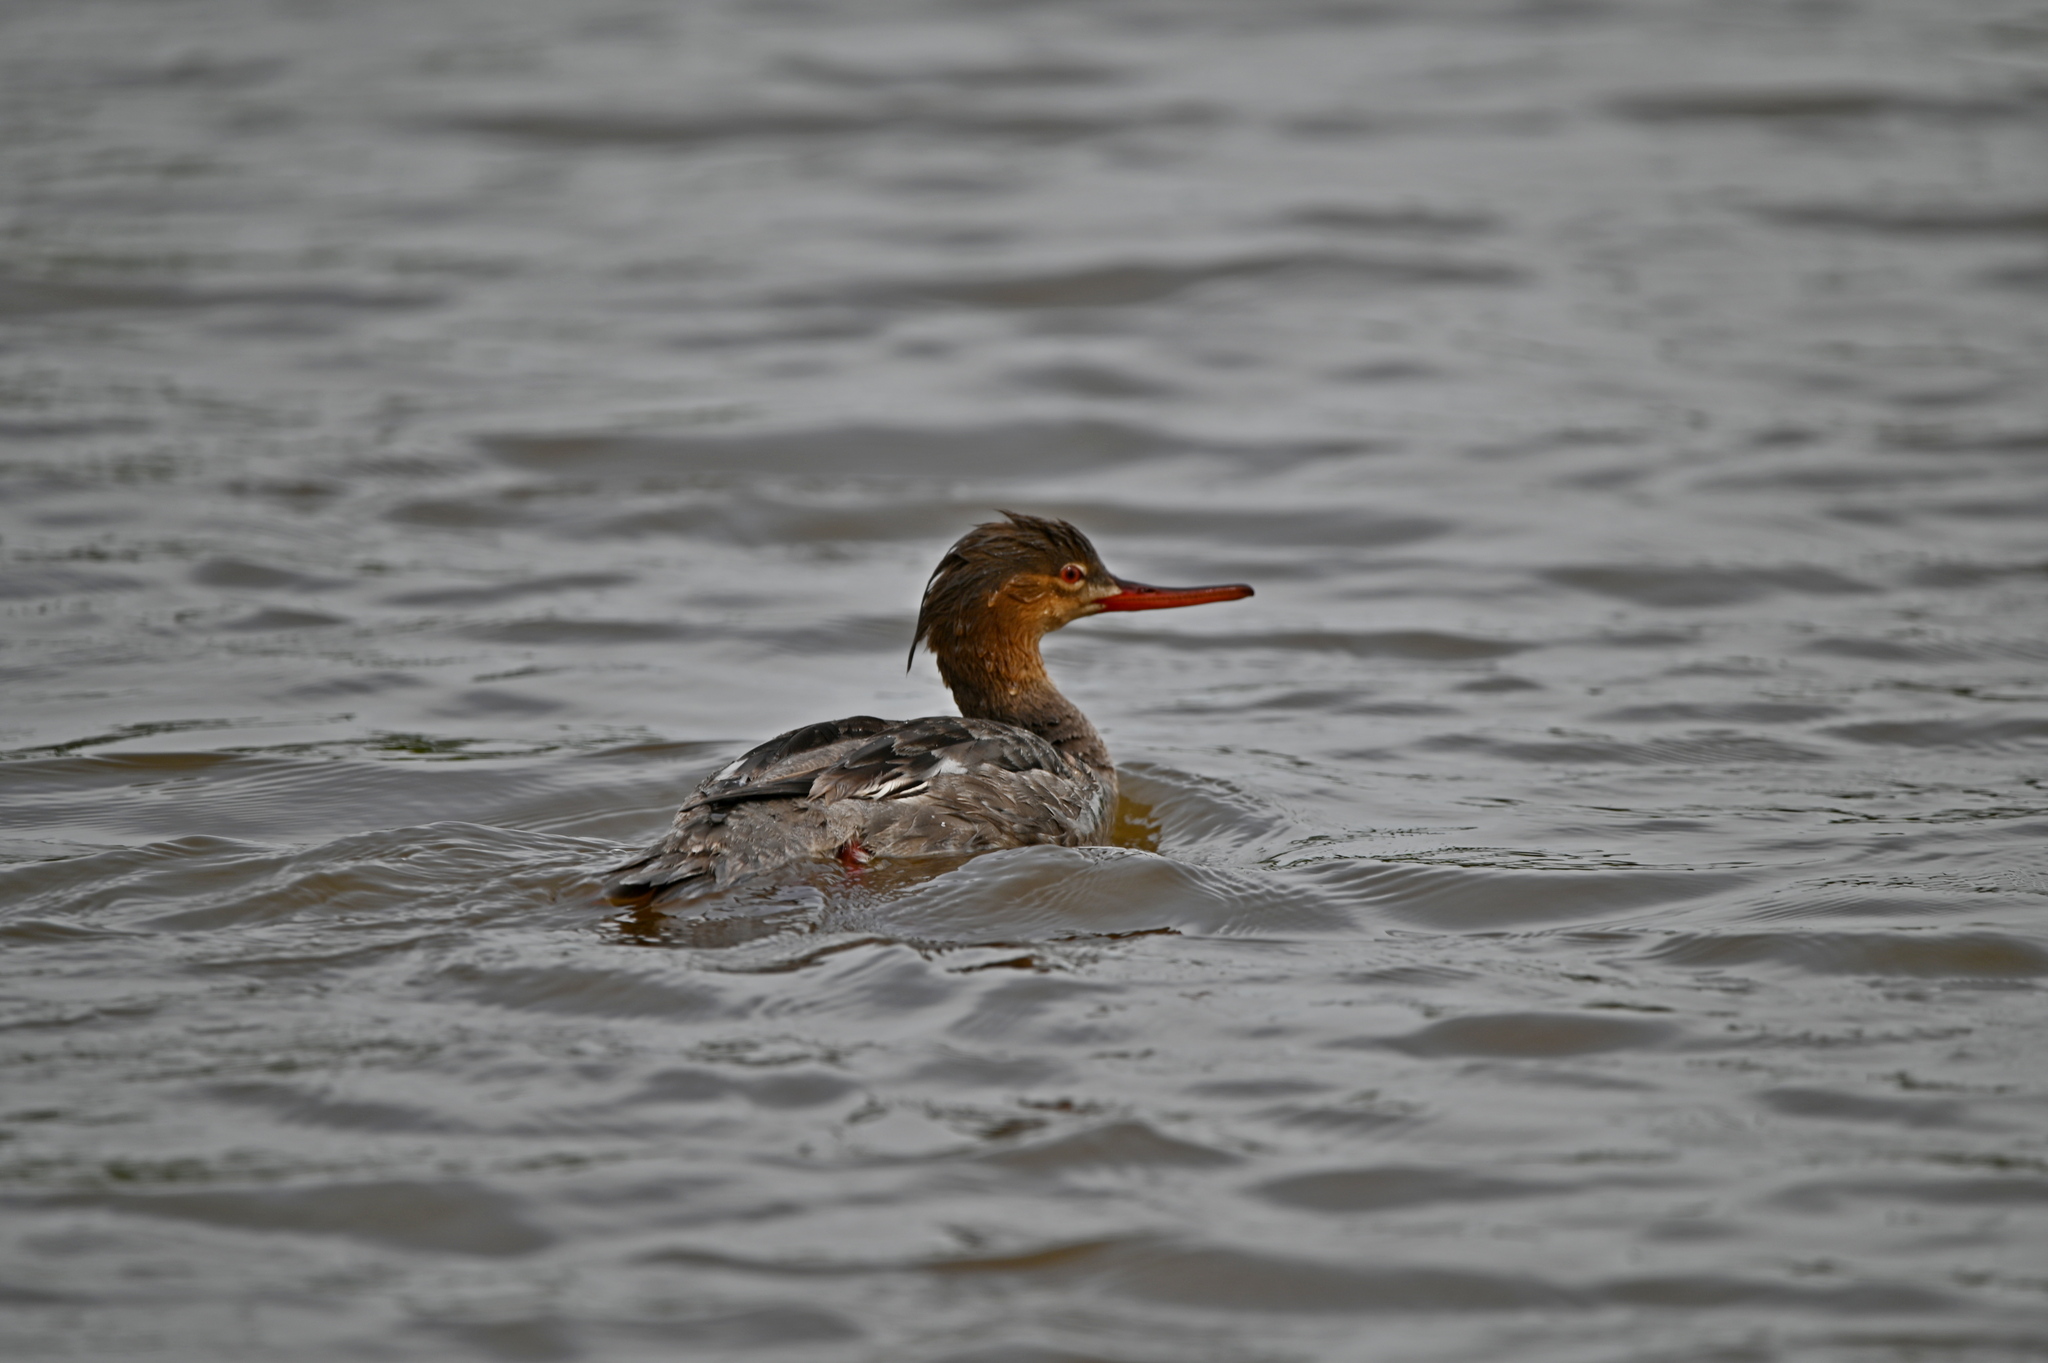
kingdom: Animalia
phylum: Chordata
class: Aves
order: Anseriformes
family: Anatidae
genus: Mergus
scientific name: Mergus serrator
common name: Red-breasted merganser
